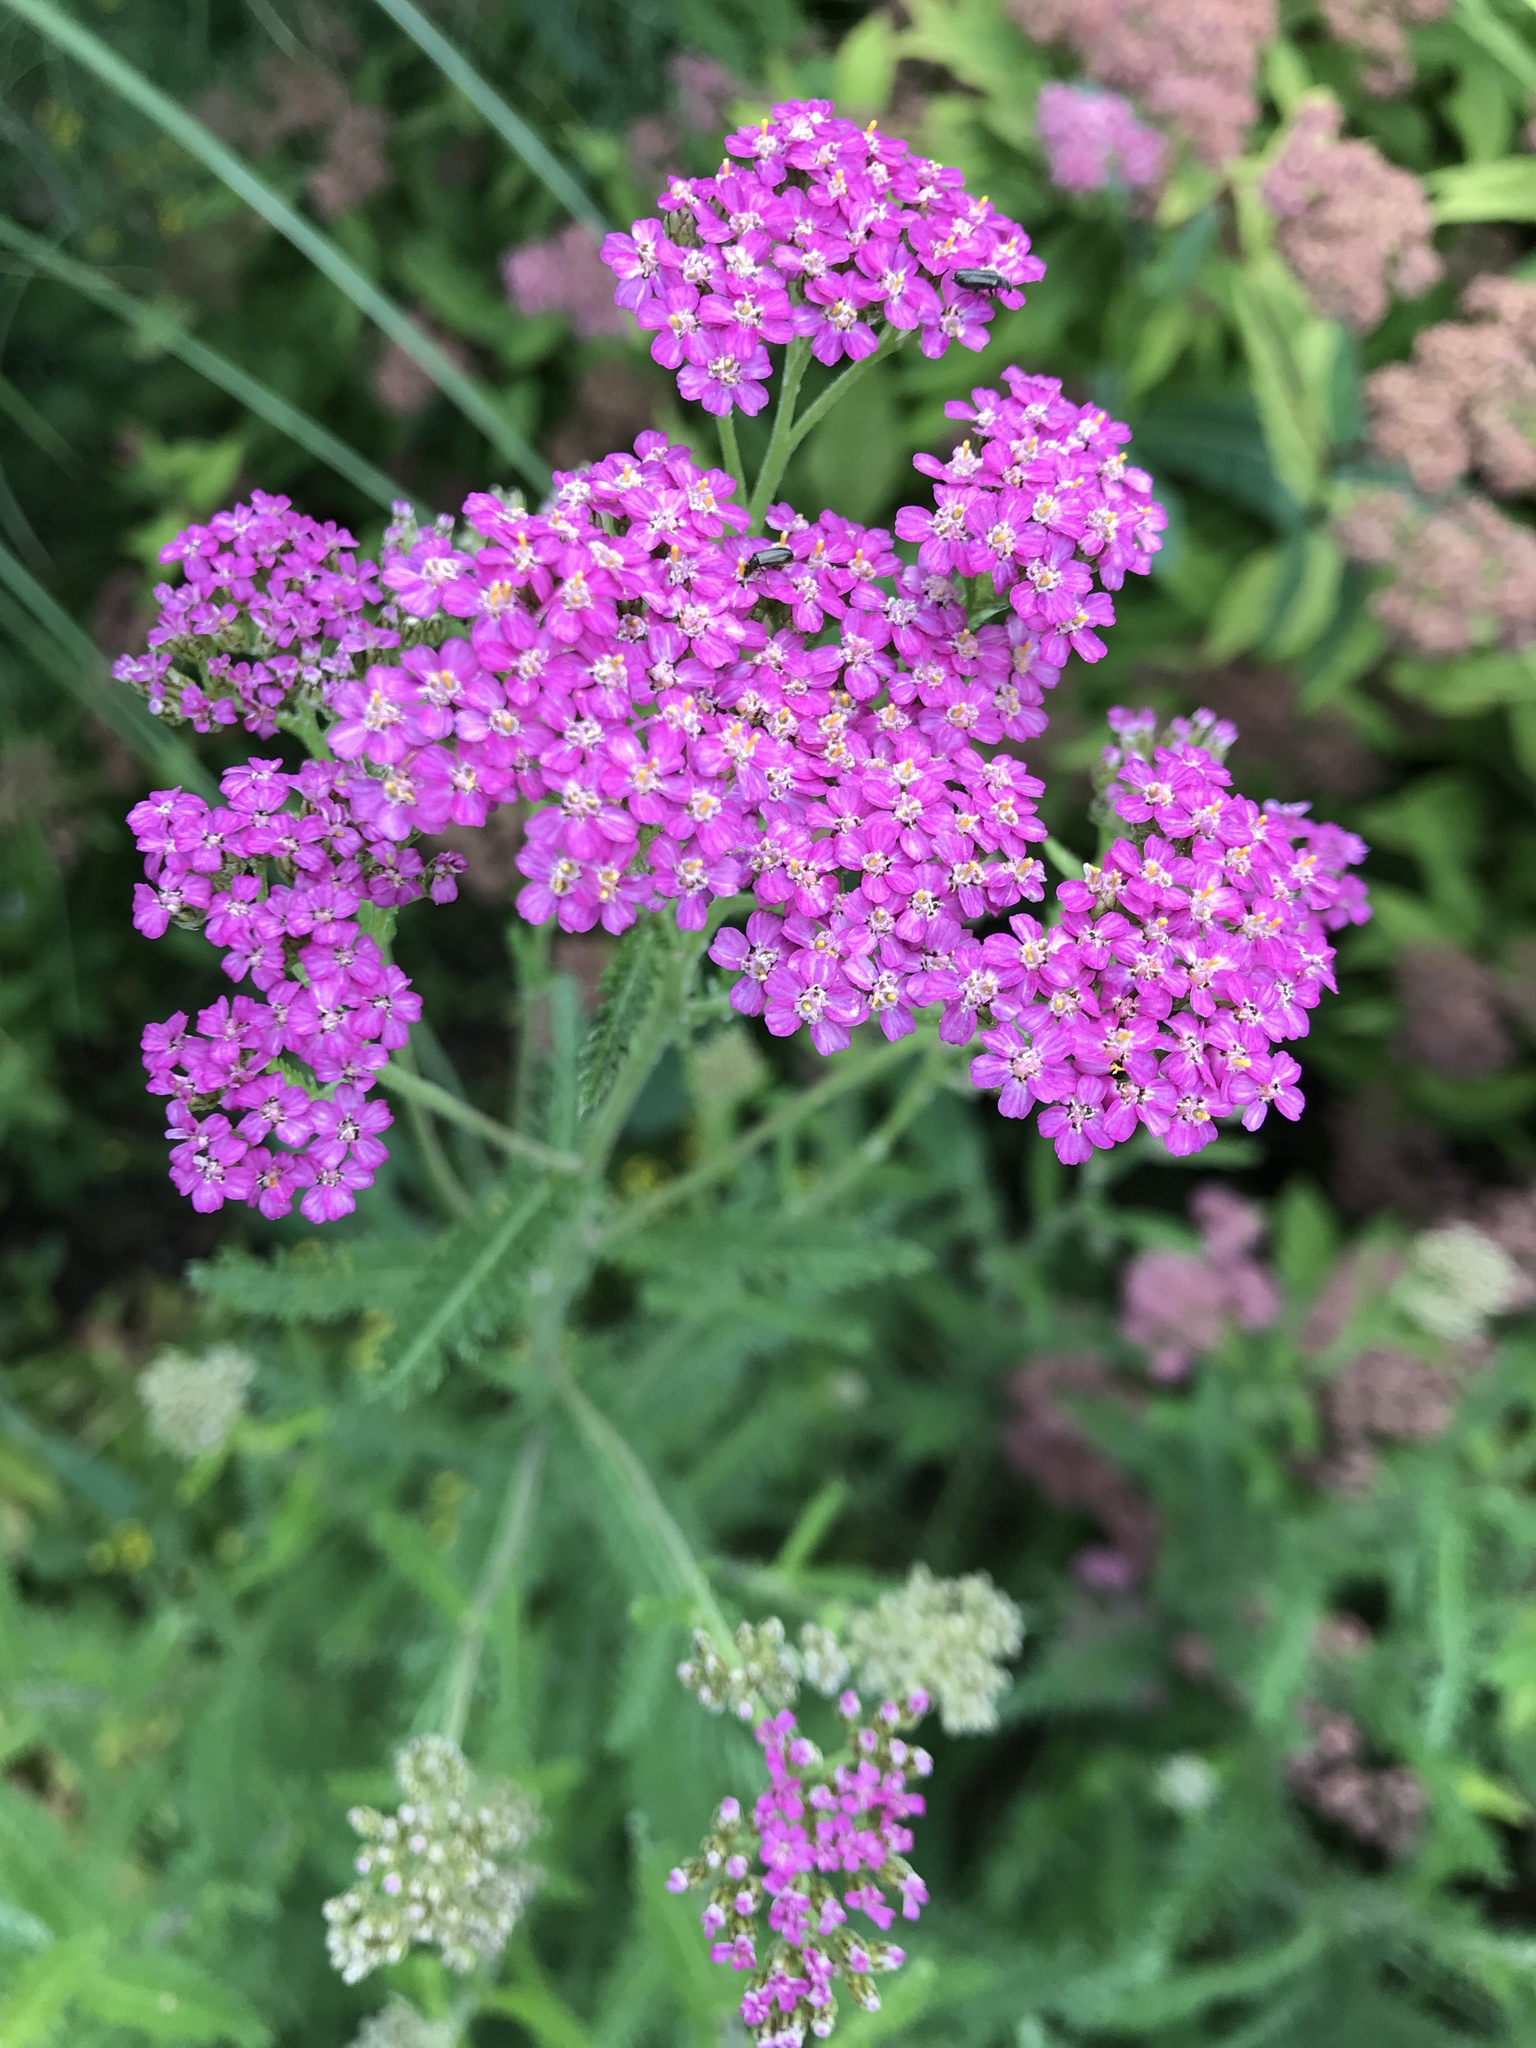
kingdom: Plantae
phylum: Tracheophyta
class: Magnoliopsida
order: Asterales
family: Asteraceae
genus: Achillea
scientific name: Achillea millefolium
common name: Yarrow
